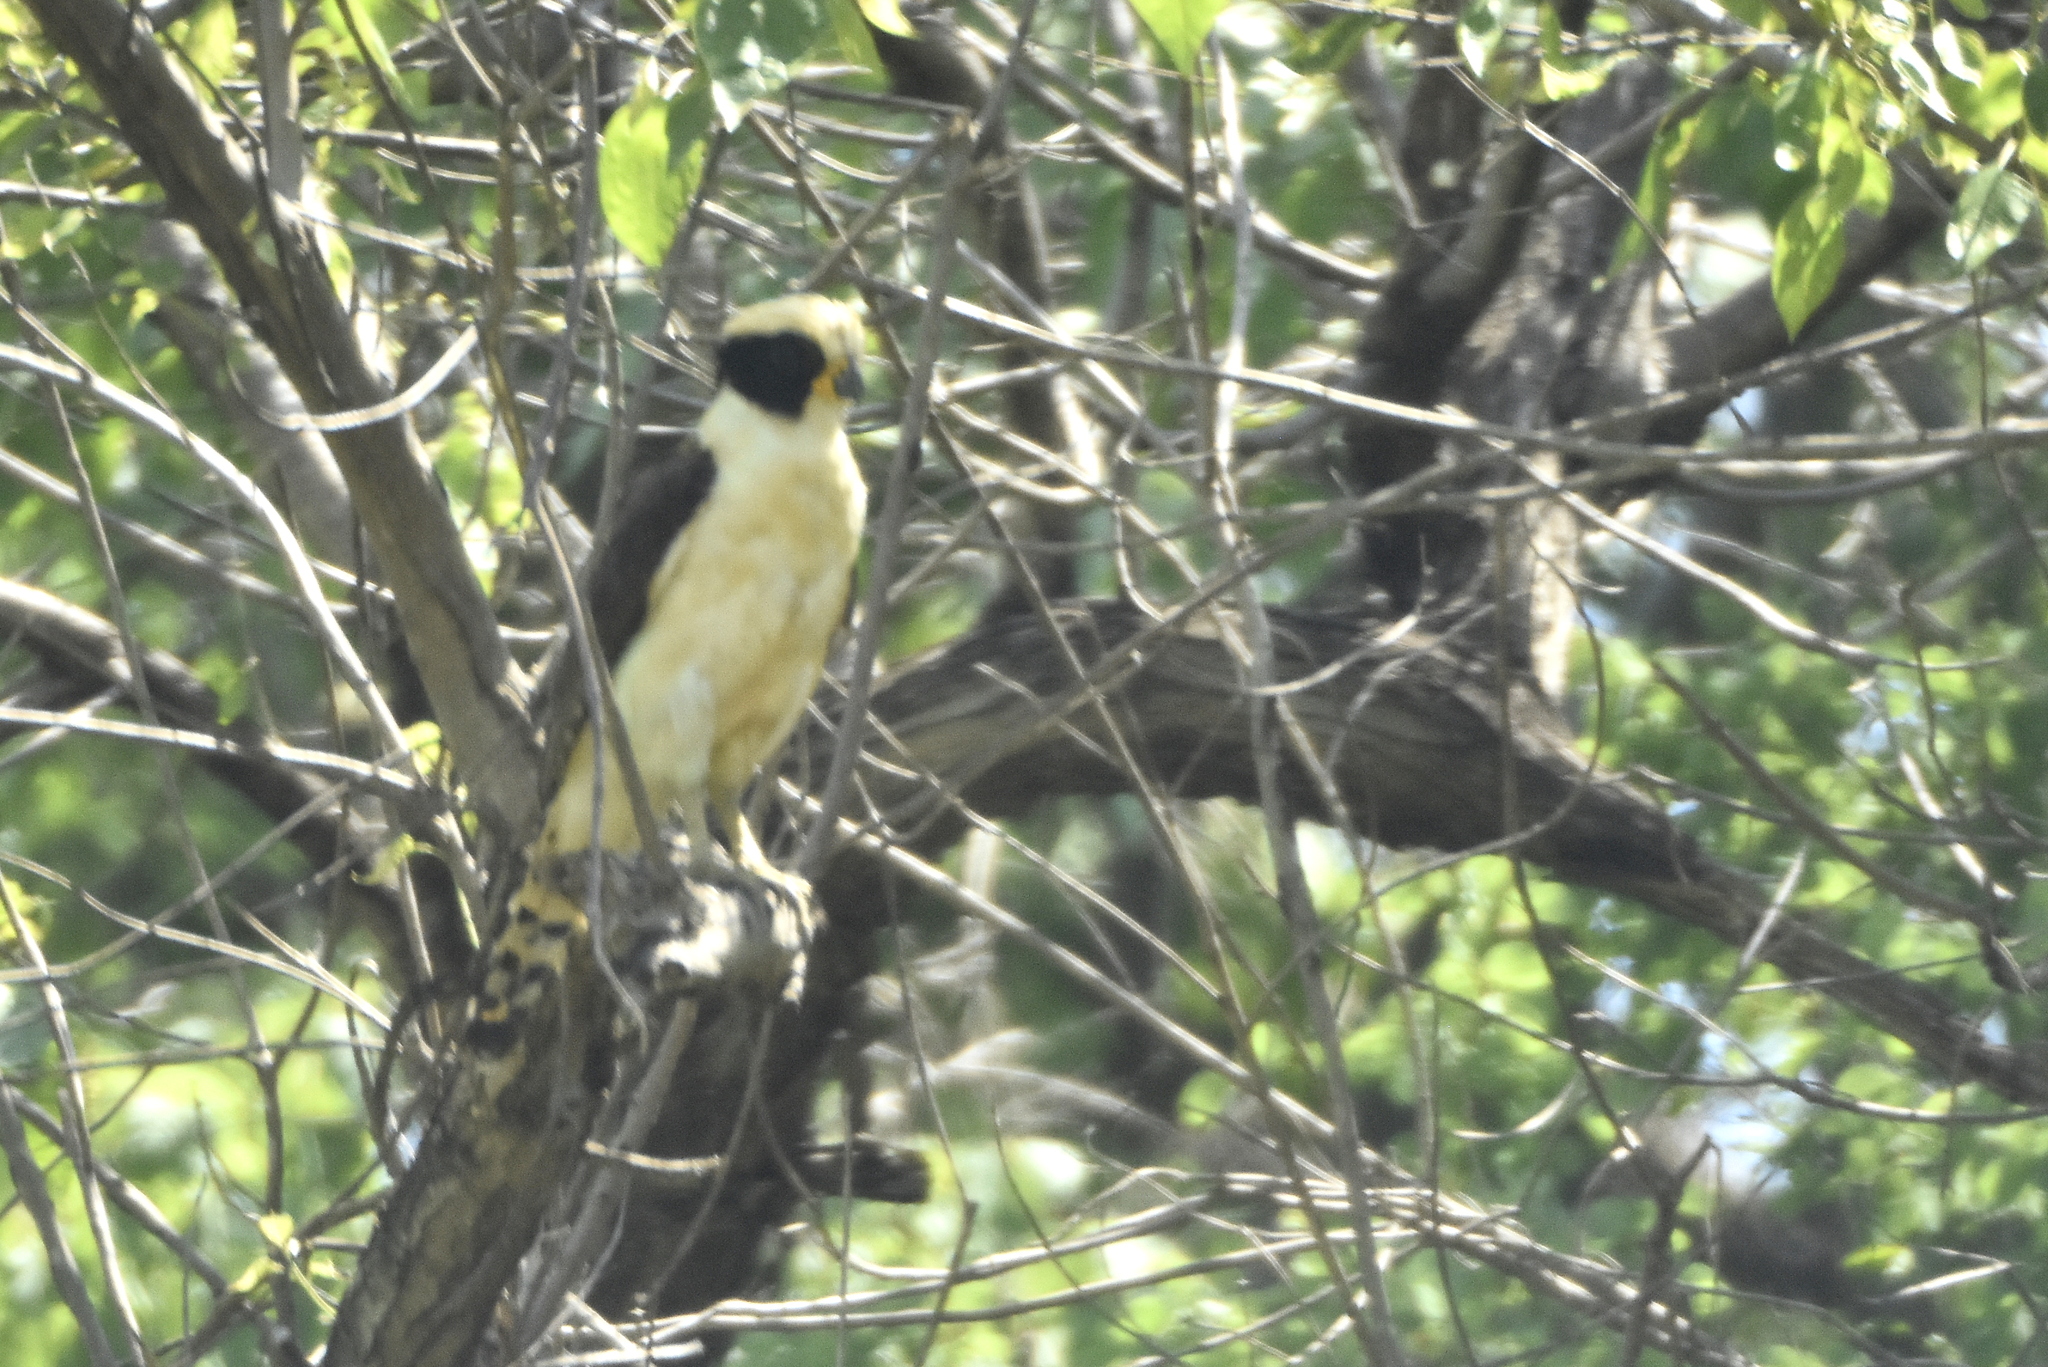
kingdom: Animalia
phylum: Chordata
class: Aves
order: Falconiformes
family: Falconidae
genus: Herpetotheres
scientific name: Herpetotheres cachinnans
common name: Laughing falcon
